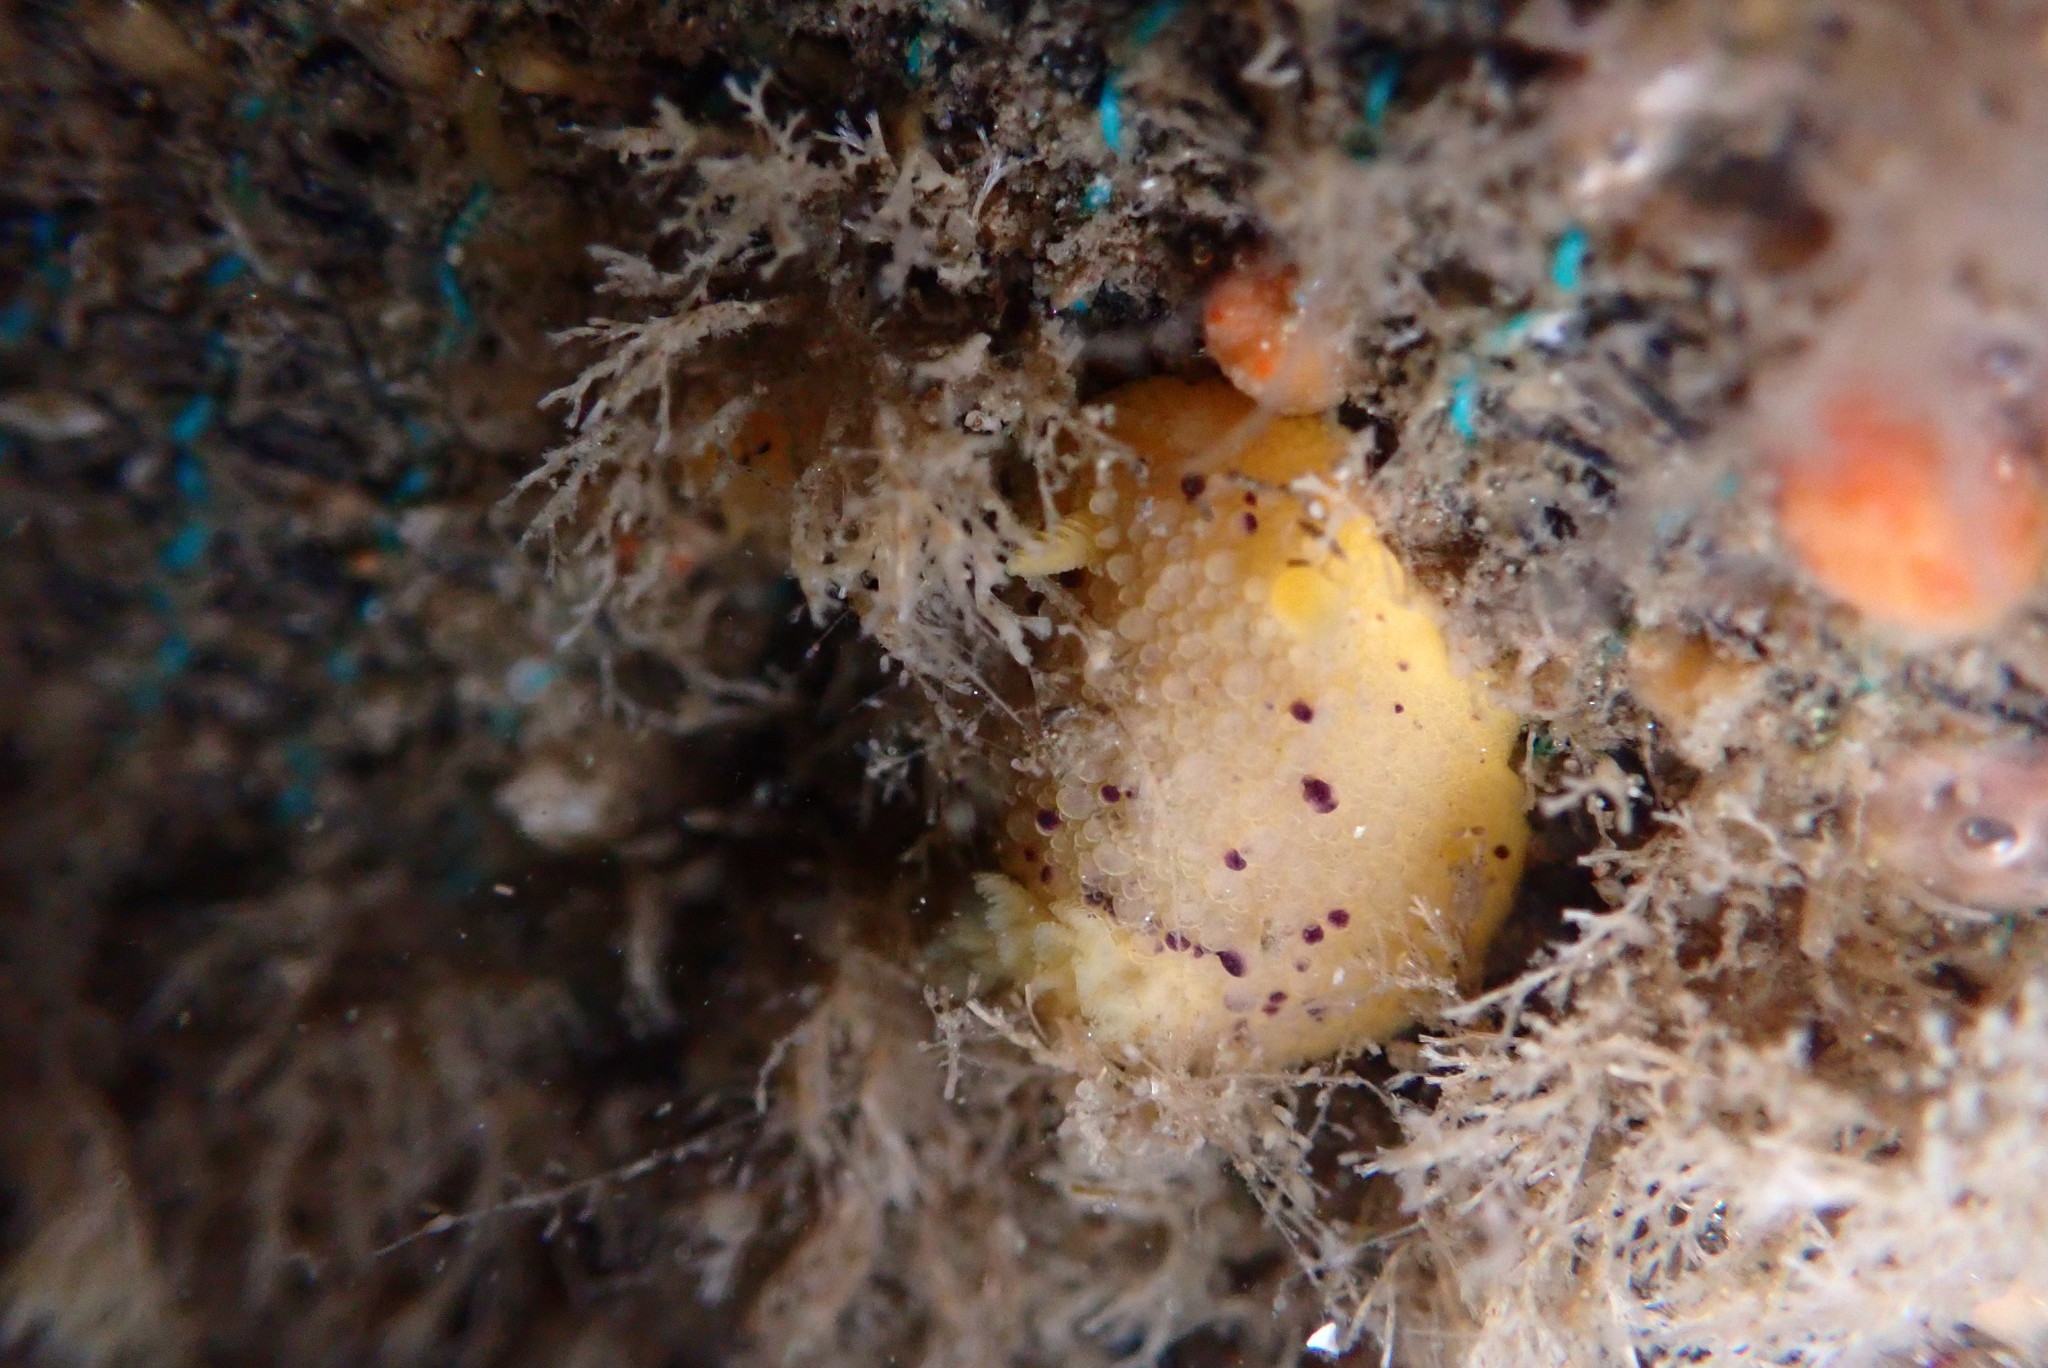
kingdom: Animalia
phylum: Mollusca
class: Gastropoda
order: Nudibranchia
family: Dorididae
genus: Doris
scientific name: Doris montereyensis
